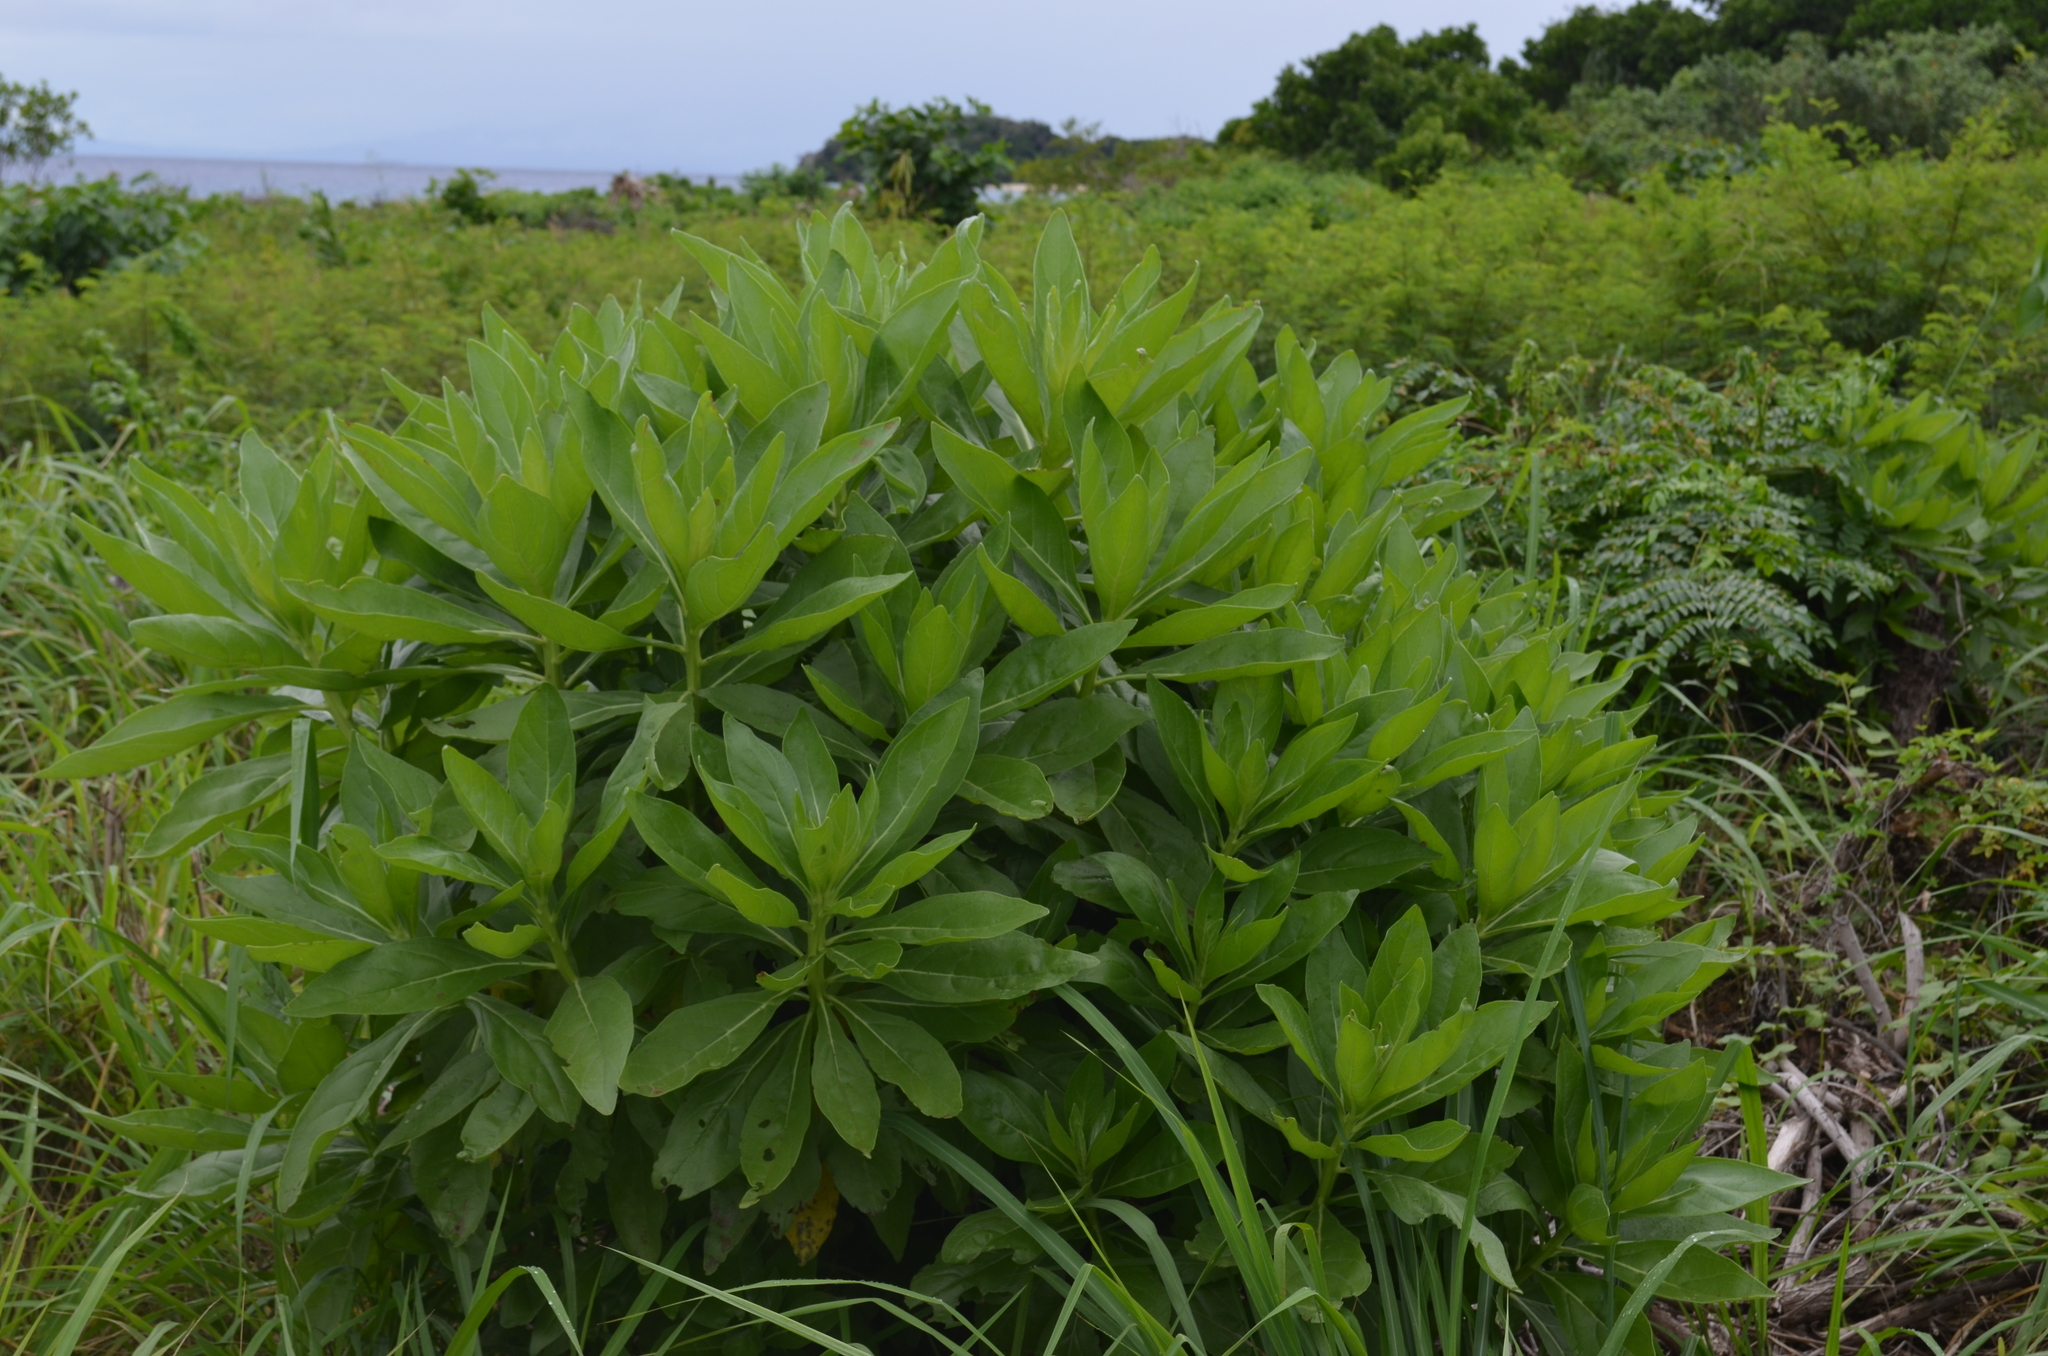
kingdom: Plantae
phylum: Tracheophyta
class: Magnoliopsida
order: Boraginales
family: Heliotropiaceae
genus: Heliotropium
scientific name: Heliotropium velutinum
